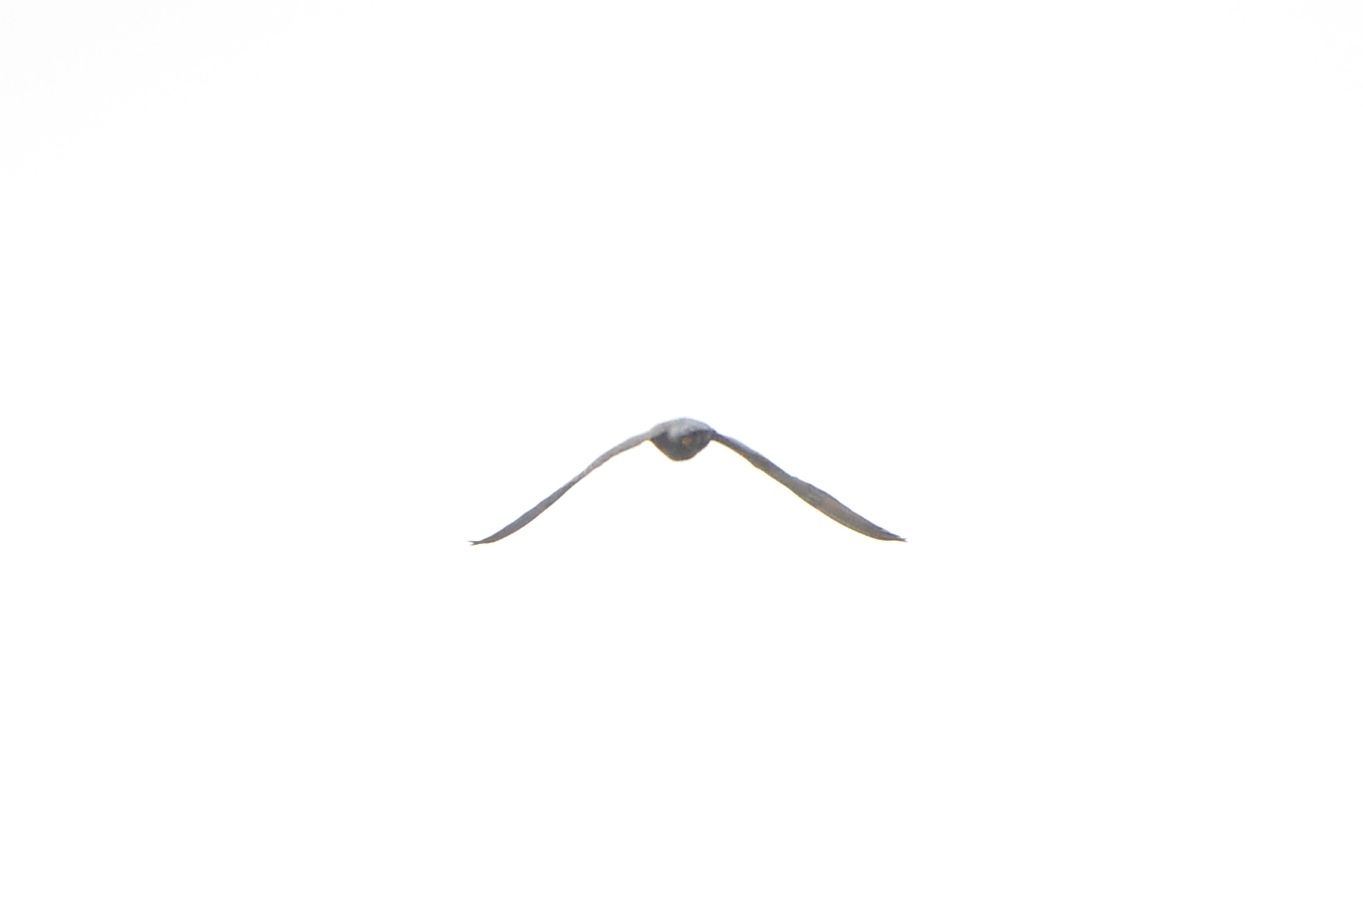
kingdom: Animalia
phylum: Chordata
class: Aves
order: Falconiformes
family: Falconidae
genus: Falco
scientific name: Falco peregrinus
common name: Peregrine falcon
